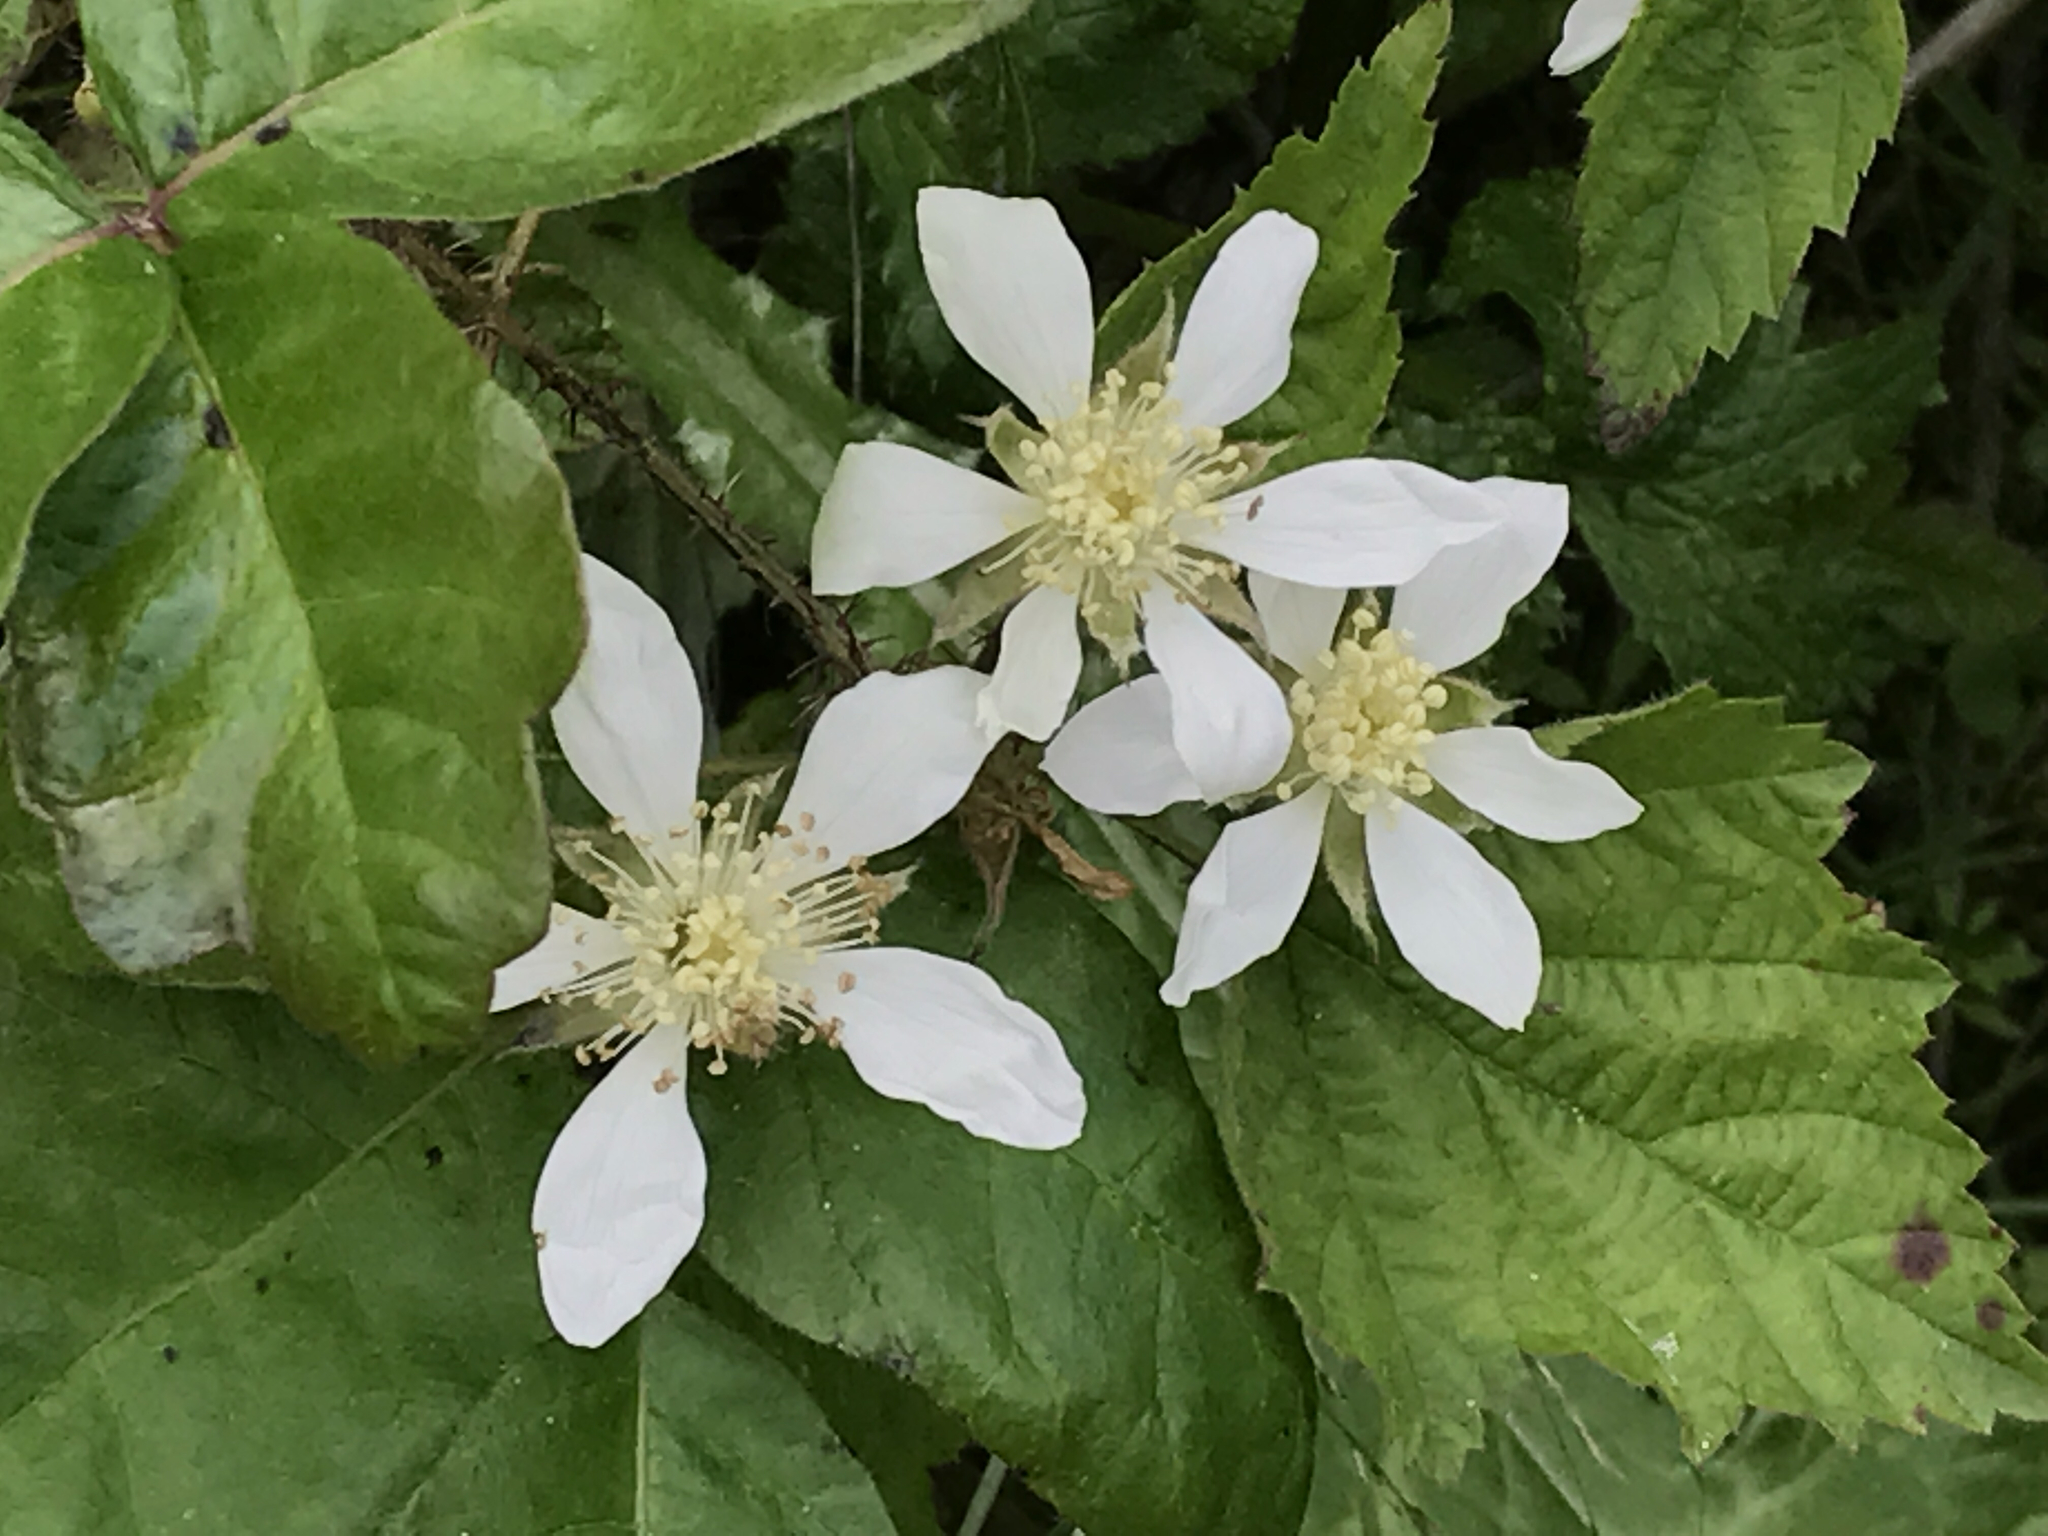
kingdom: Plantae
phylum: Tracheophyta
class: Magnoliopsida
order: Rosales
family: Rosaceae
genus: Rubus
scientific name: Rubus ursinus
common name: Pacific blackberry
